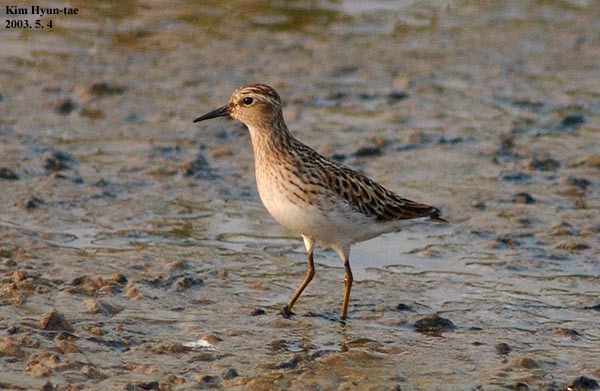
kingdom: Animalia
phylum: Chordata
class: Aves
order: Charadriiformes
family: Scolopacidae
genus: Calidris
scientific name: Calidris subminuta
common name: Long-toed stint
